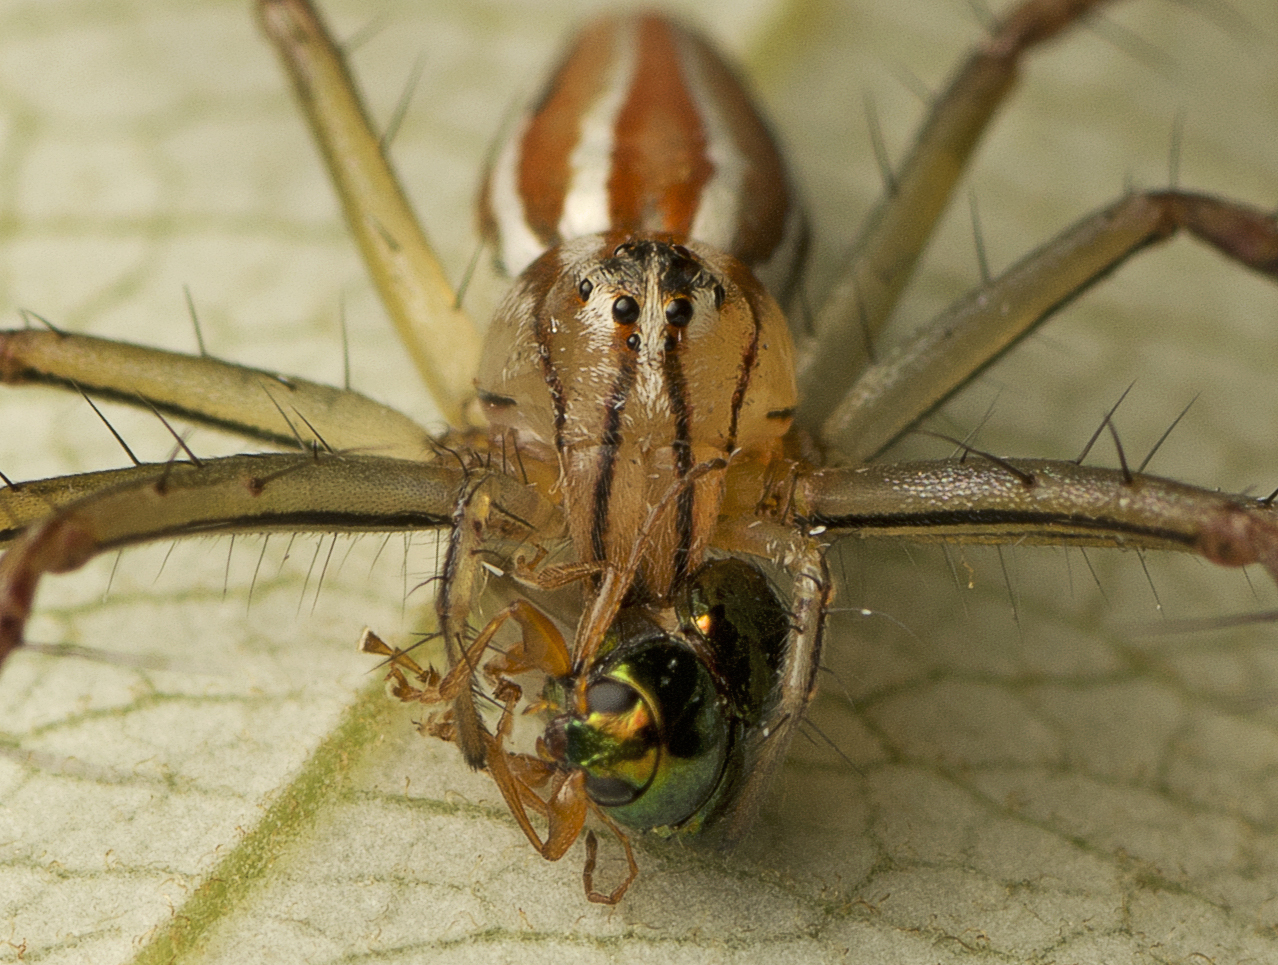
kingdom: Animalia
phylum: Arthropoda
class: Arachnida
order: Araneae
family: Oxyopidae
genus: Oxyopes
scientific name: Oxyopes macilentus
